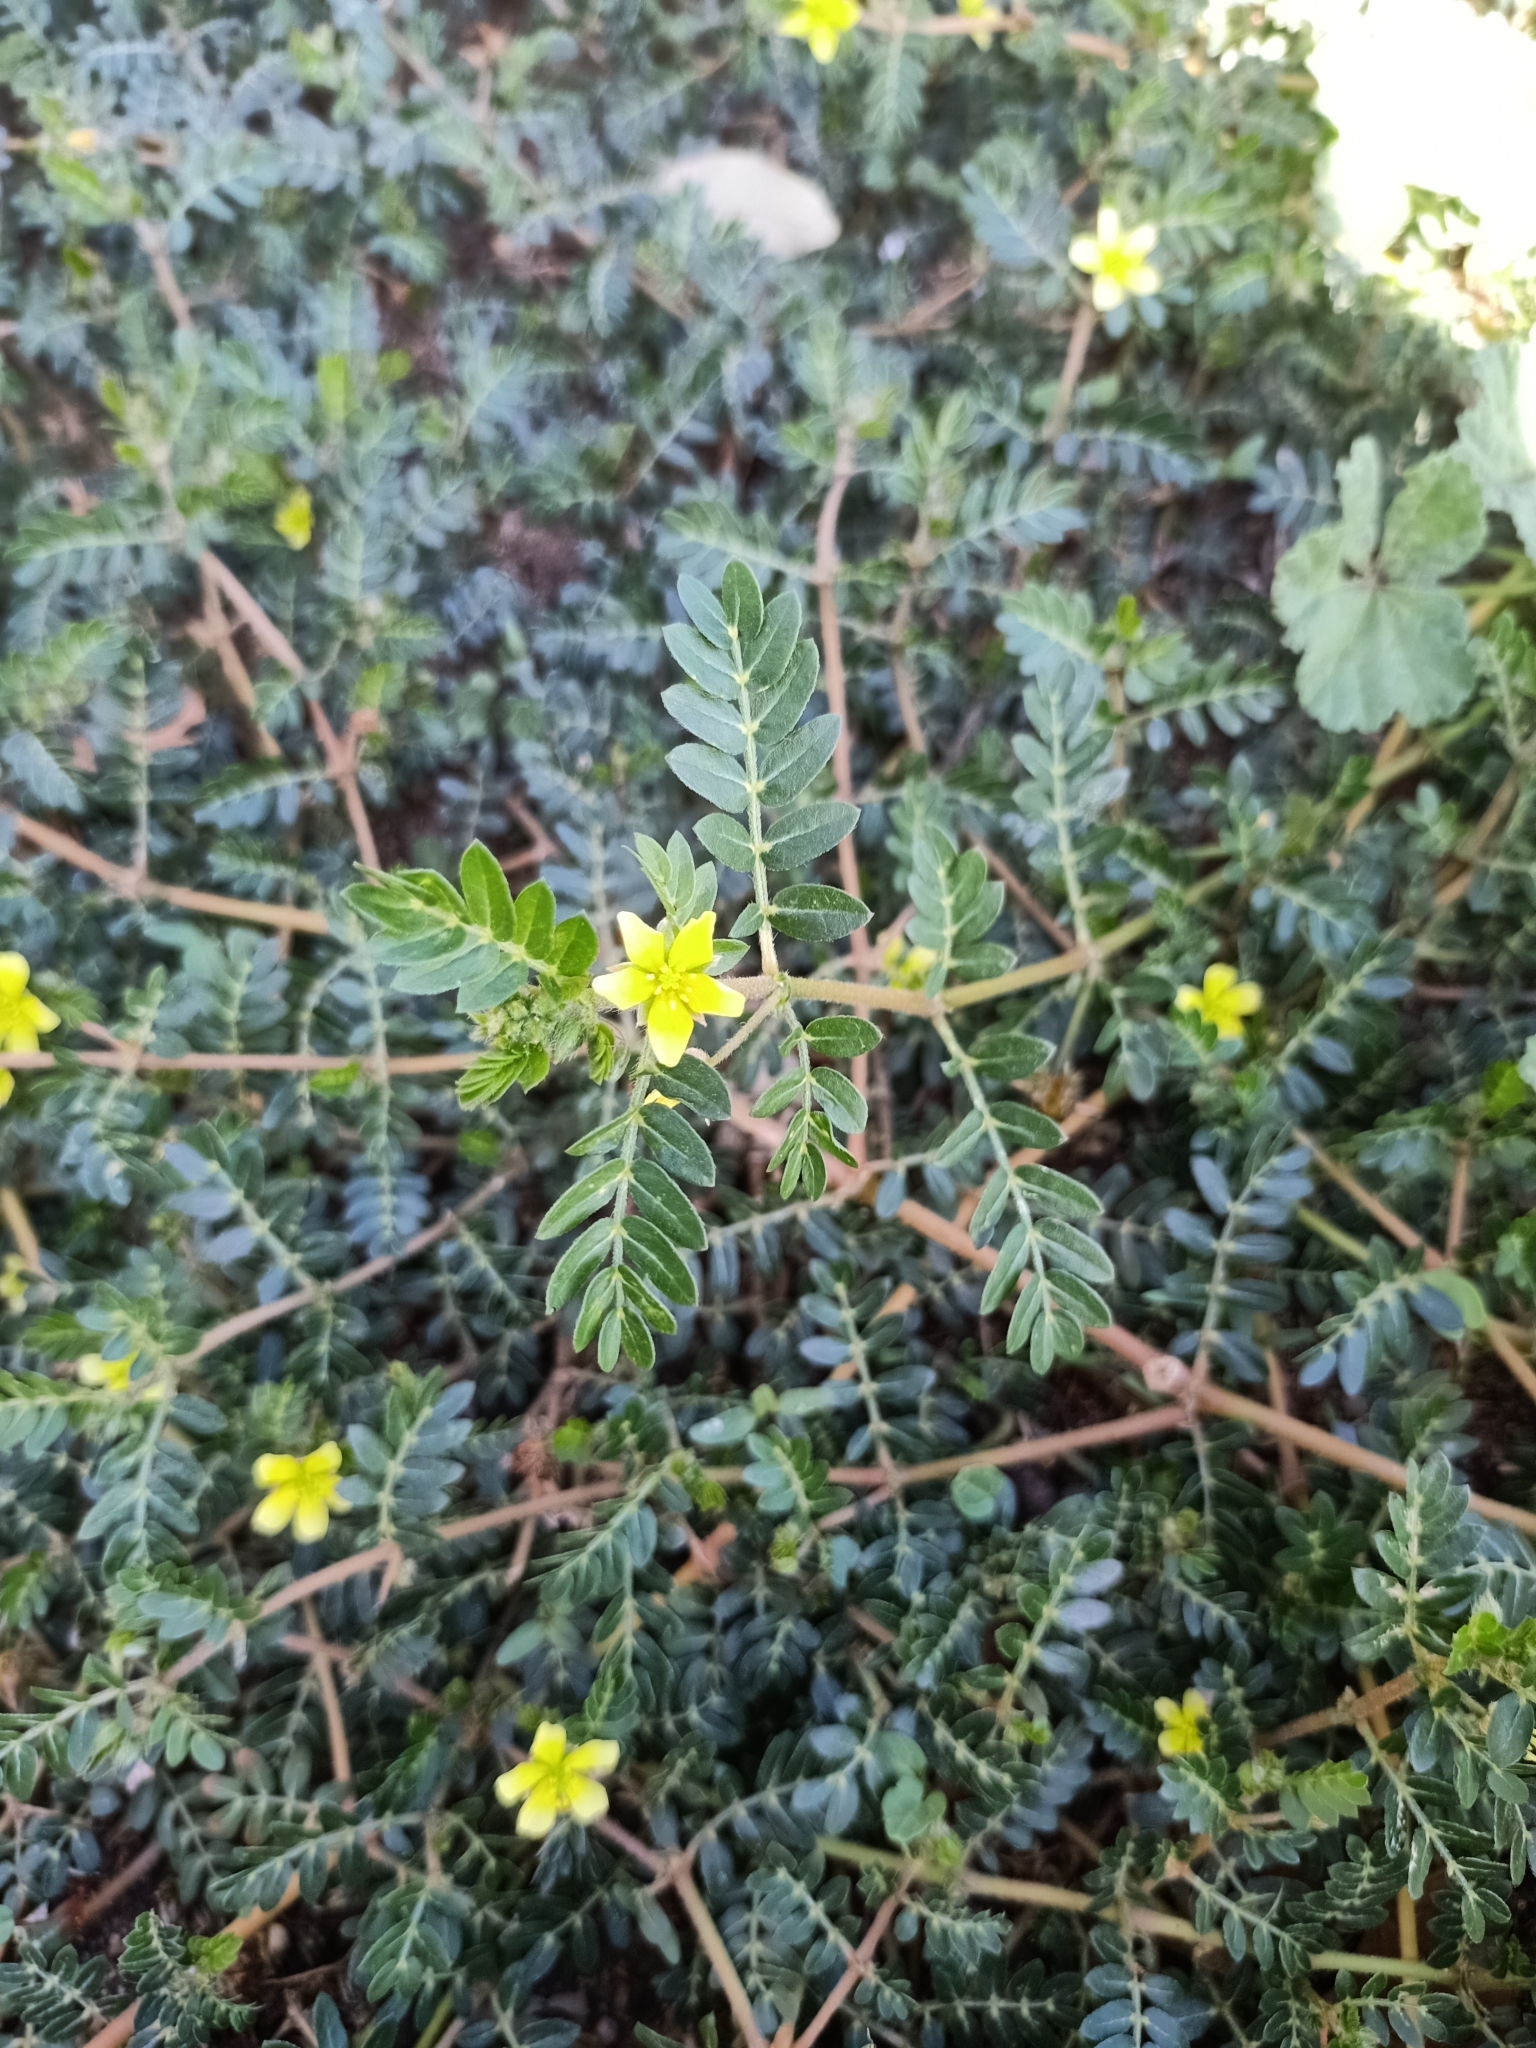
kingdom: Plantae
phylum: Tracheophyta
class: Magnoliopsida
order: Zygophyllales
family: Zygophyllaceae
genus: Tribulus
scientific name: Tribulus terrestris
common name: Puncturevine
